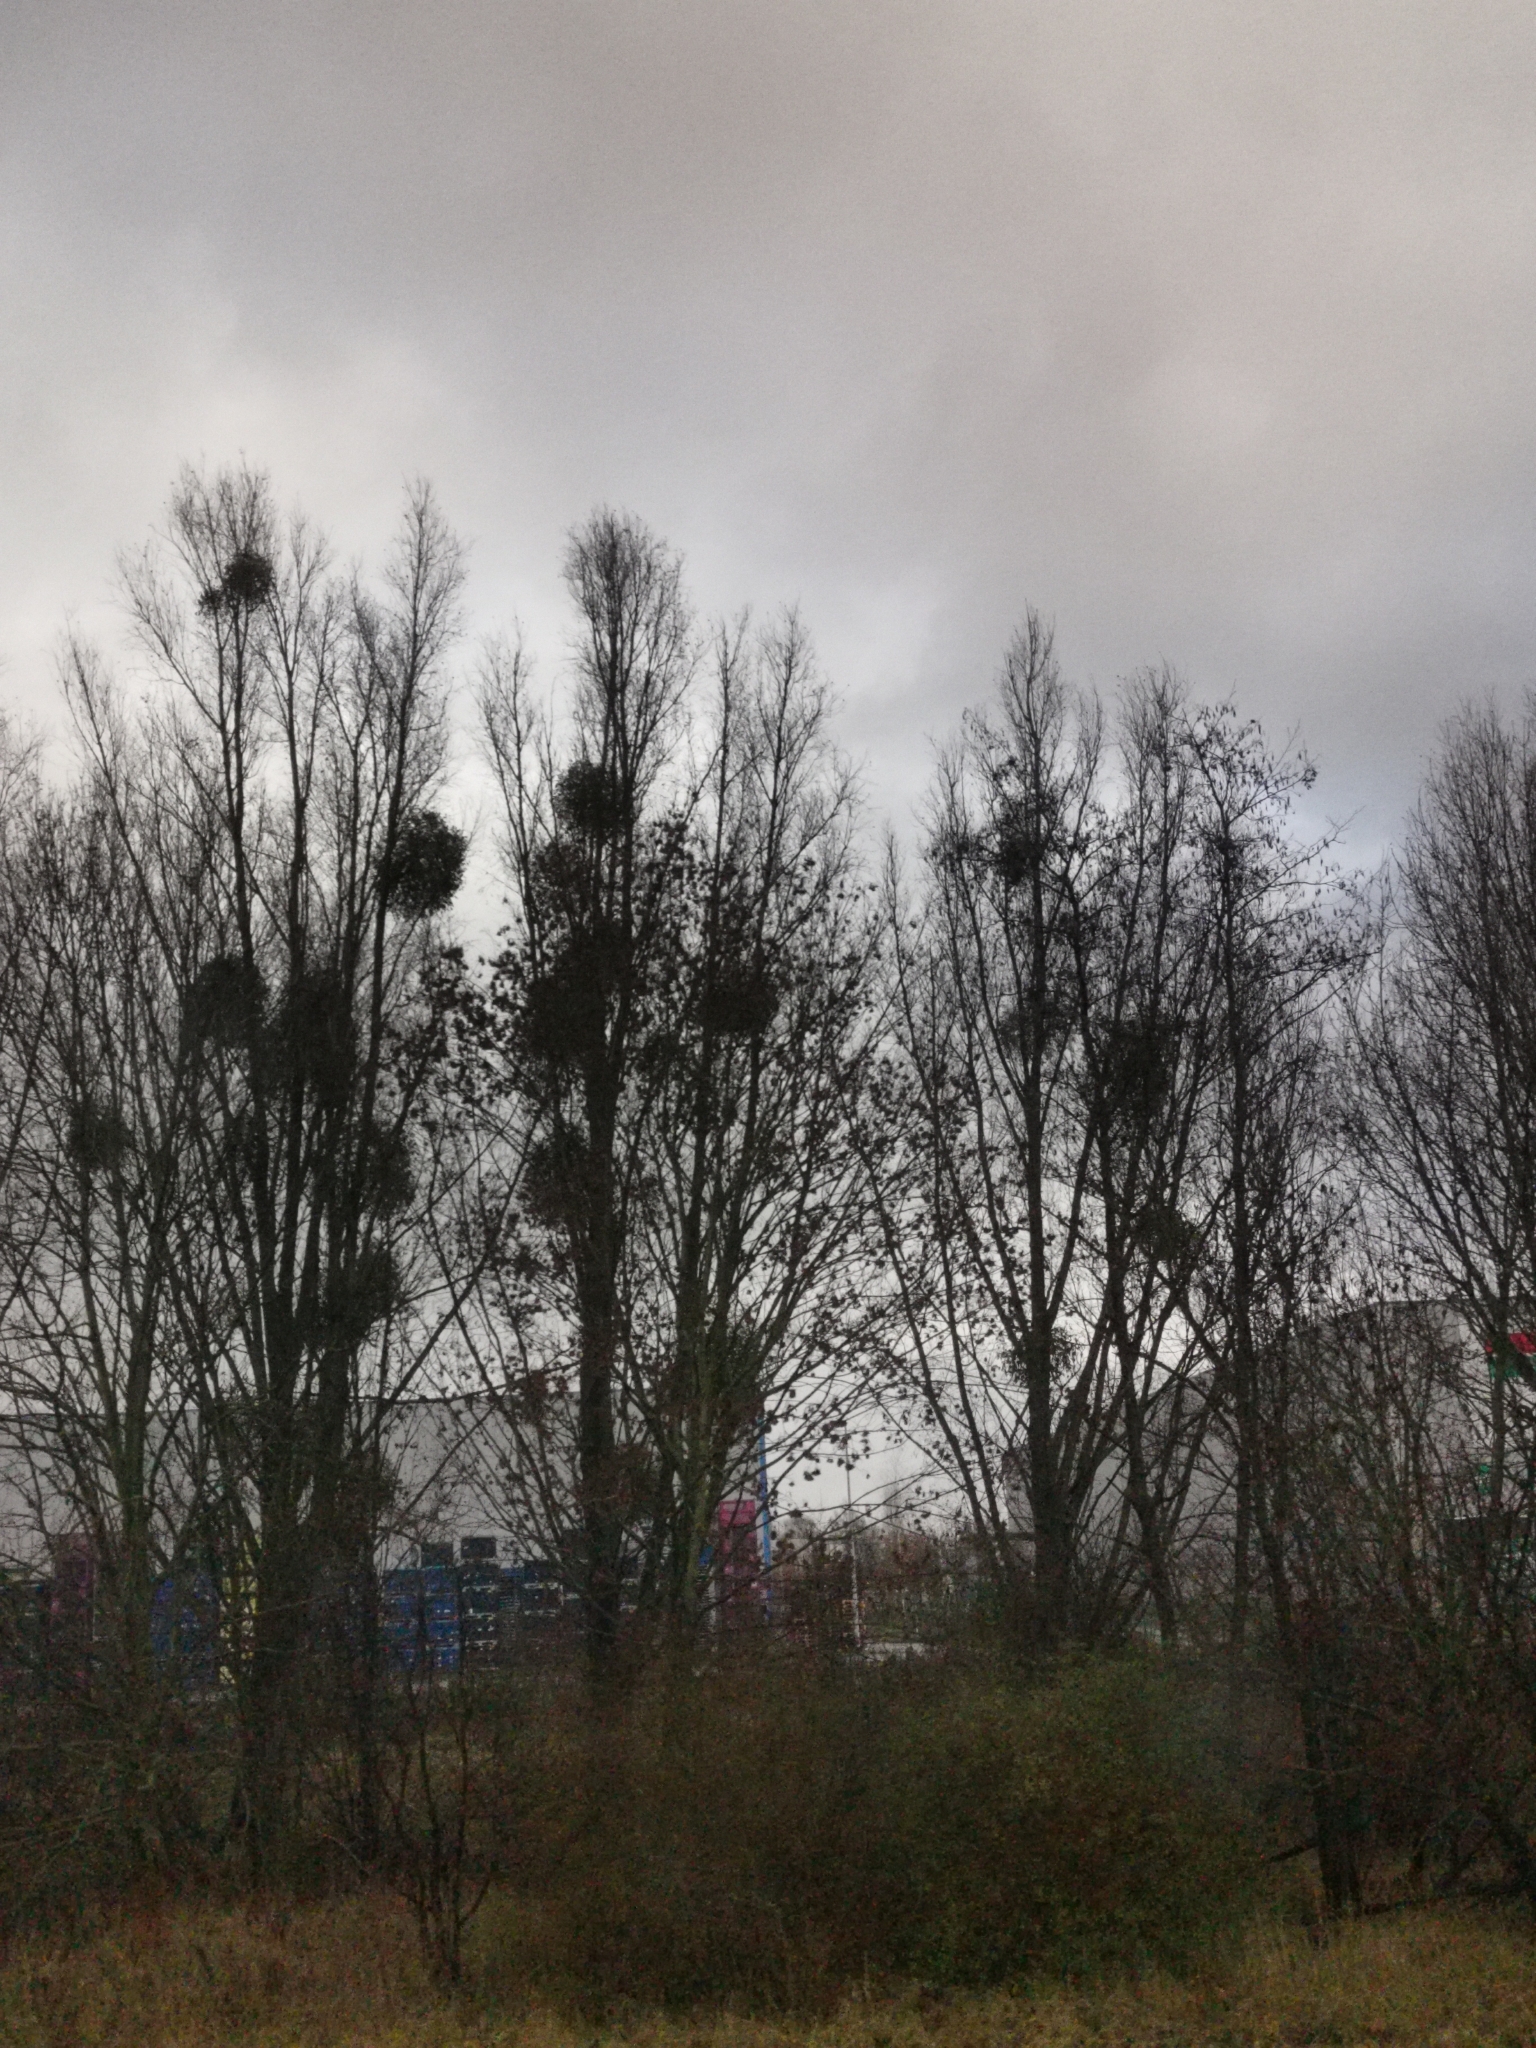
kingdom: Plantae
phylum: Tracheophyta
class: Magnoliopsida
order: Santalales
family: Viscaceae
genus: Viscum
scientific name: Viscum album
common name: Mistletoe
